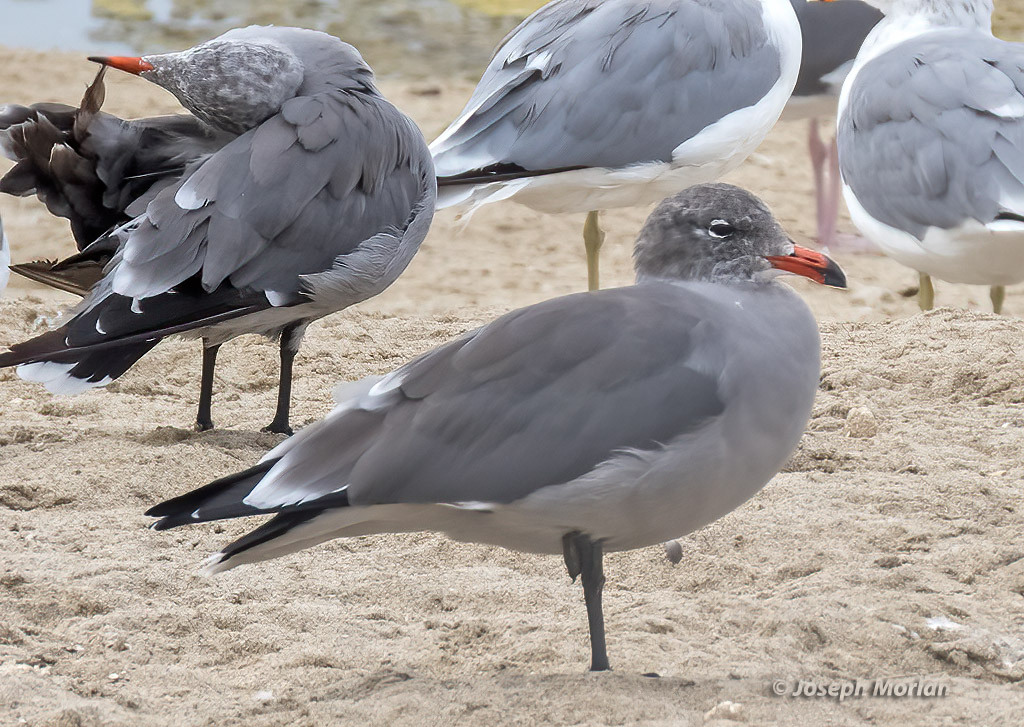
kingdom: Animalia
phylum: Chordata
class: Aves
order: Charadriiformes
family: Laridae
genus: Larus
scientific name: Larus heermanni
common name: Heermann's gull
